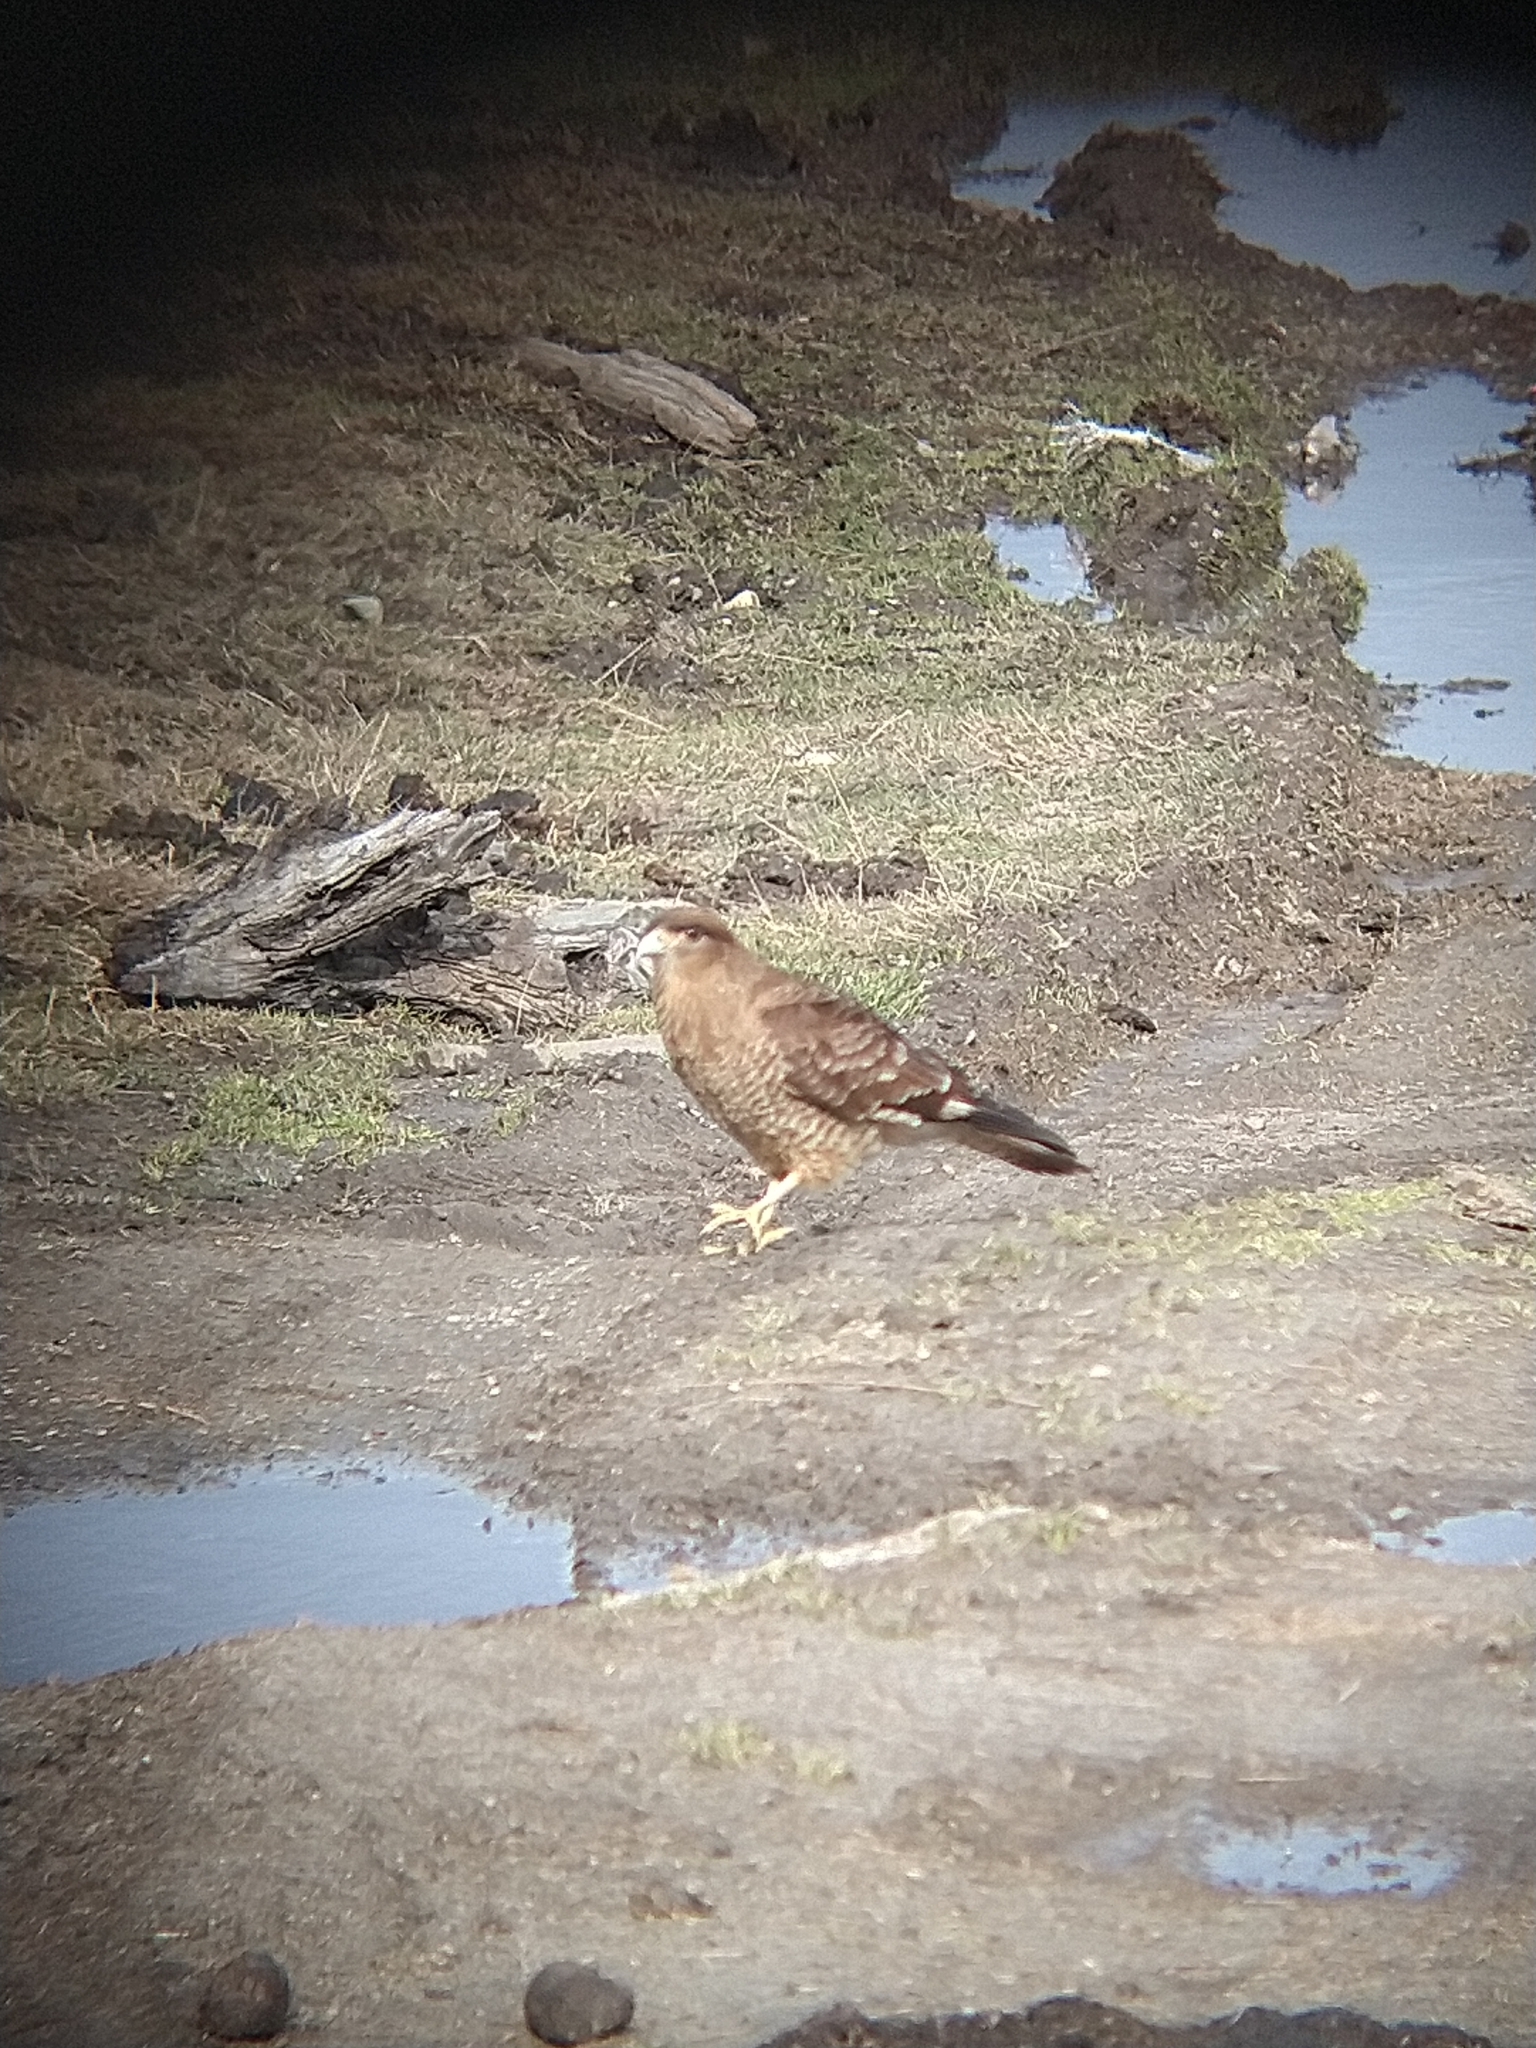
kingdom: Animalia
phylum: Chordata
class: Aves
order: Falconiformes
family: Falconidae
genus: Daptrius
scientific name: Daptrius
